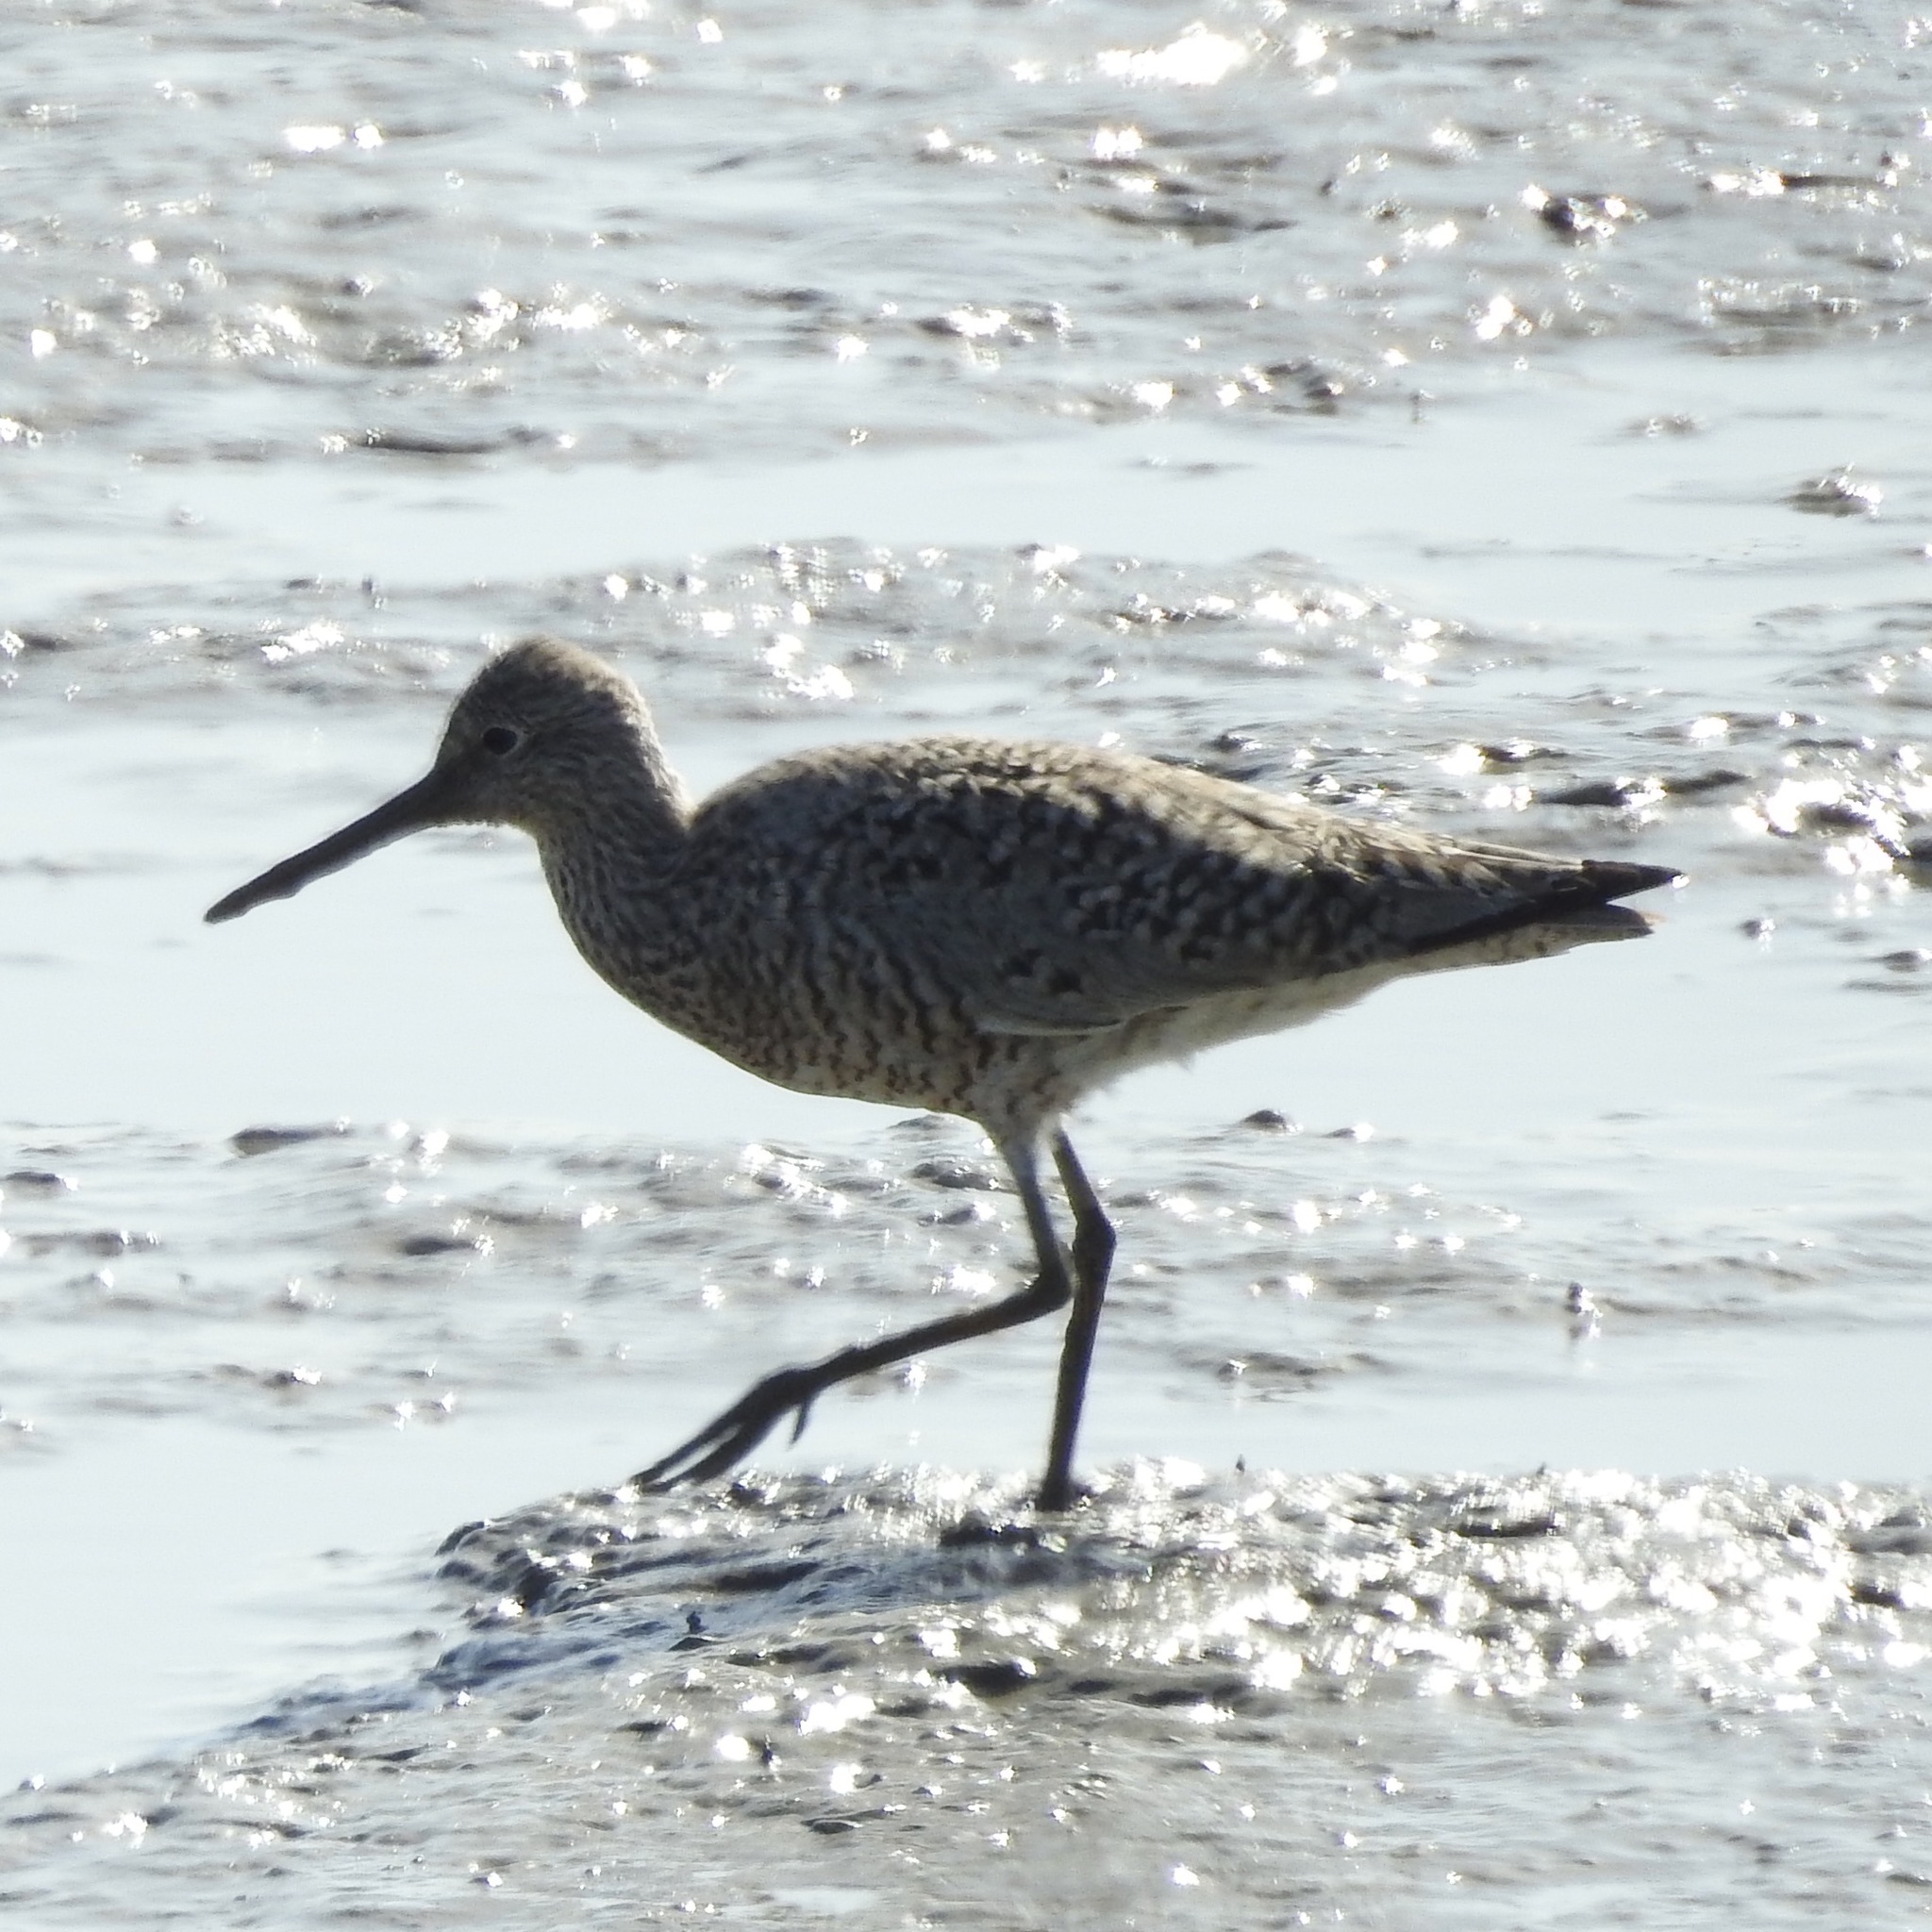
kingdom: Animalia
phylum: Chordata
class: Aves
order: Charadriiformes
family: Scolopacidae
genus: Tringa
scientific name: Tringa semipalmata
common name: Willet
